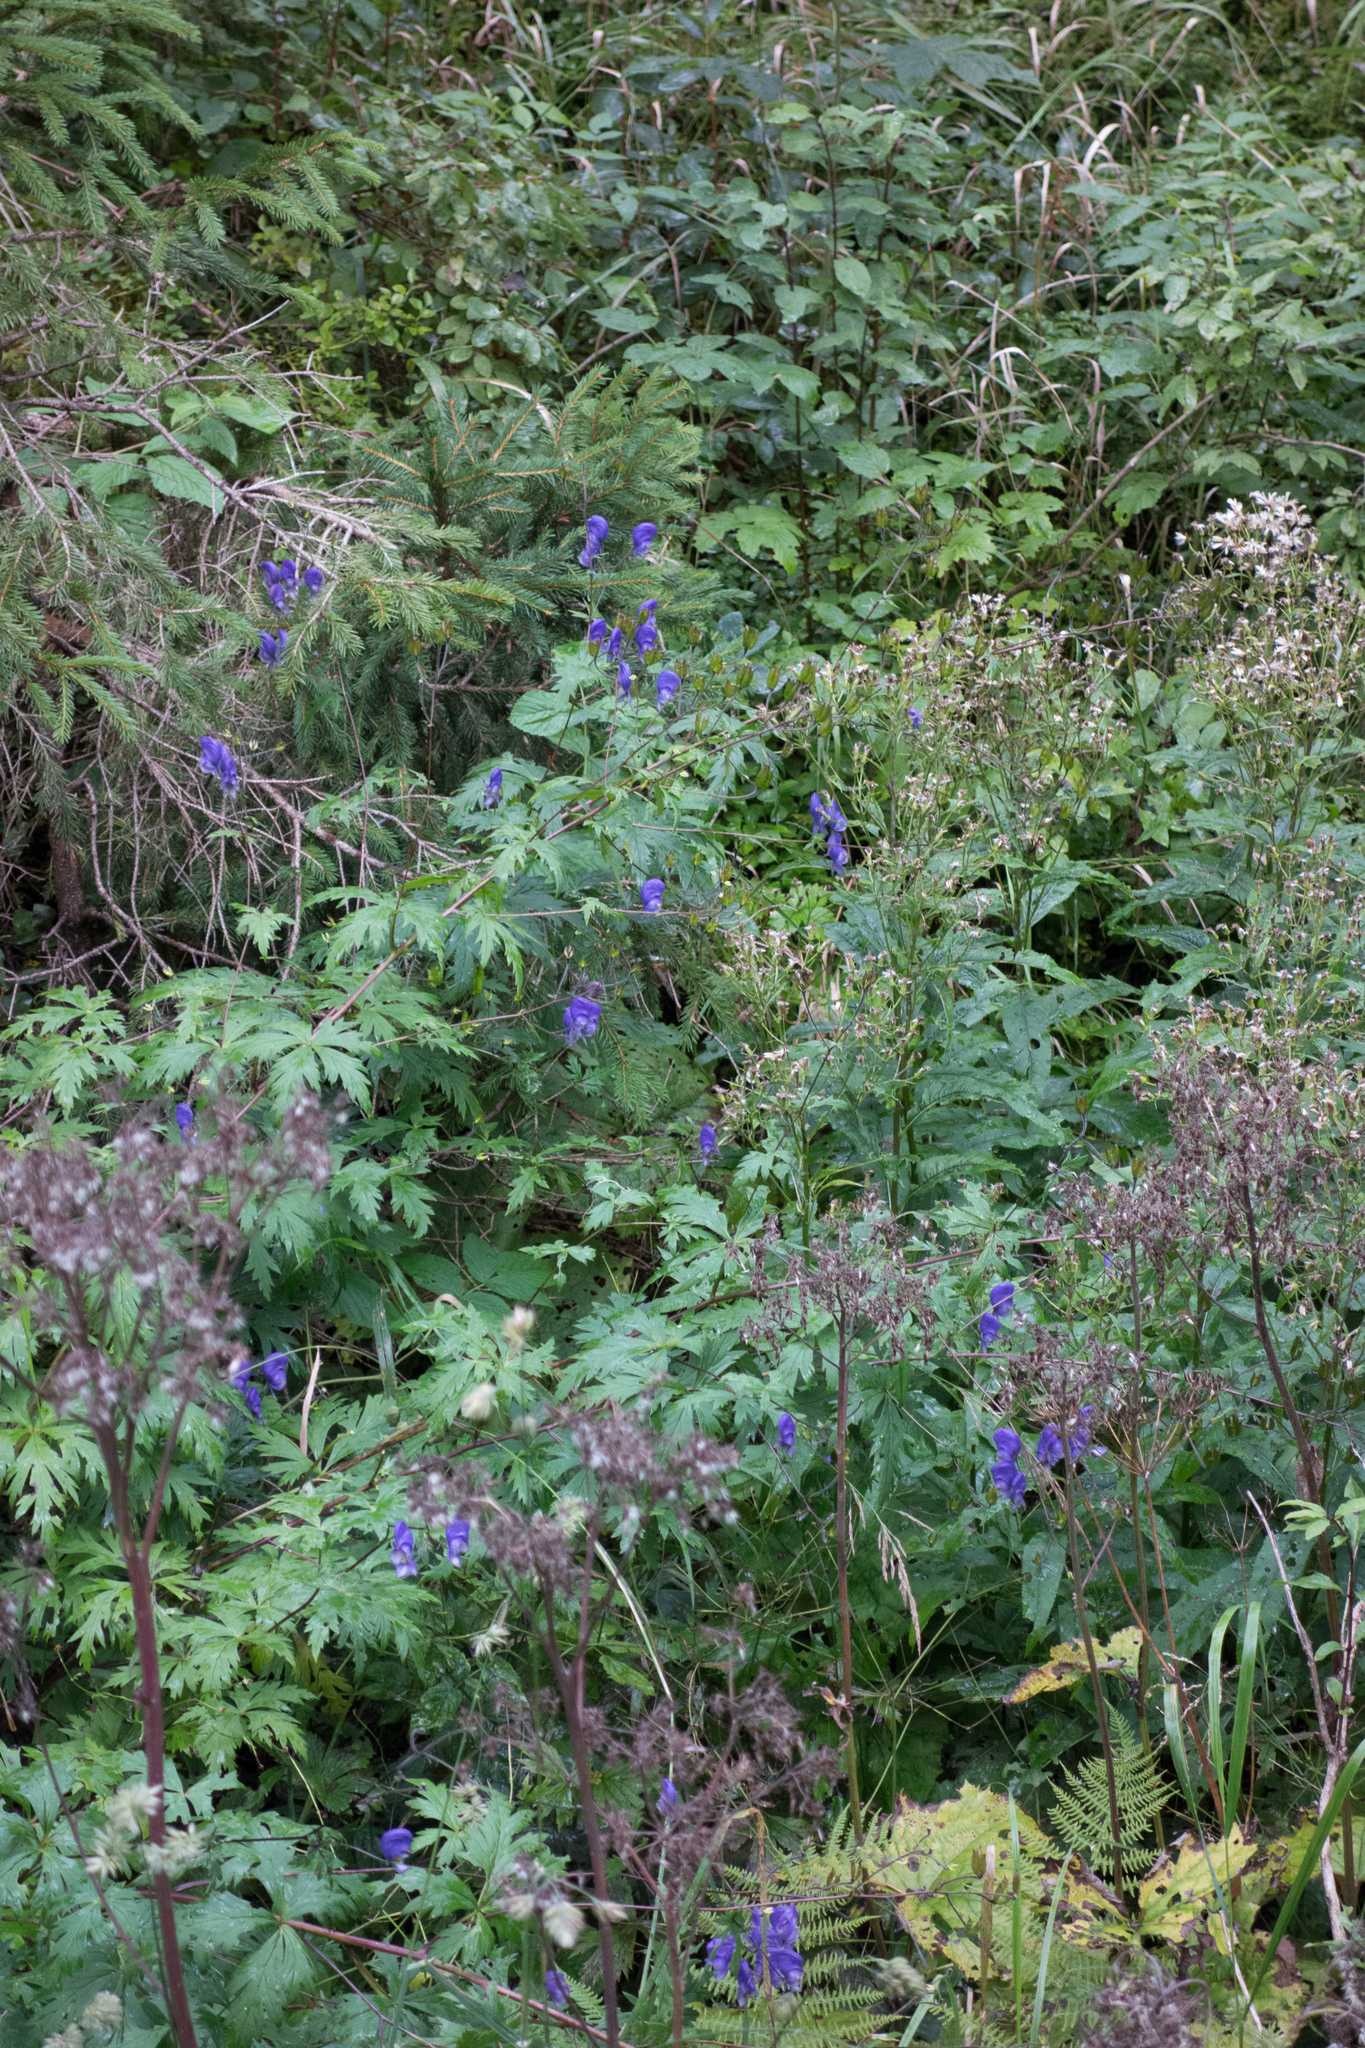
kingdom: Plantae
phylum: Tracheophyta
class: Magnoliopsida
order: Gentianales
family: Gentianaceae
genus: Gentiana
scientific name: Gentiana asclepiadea
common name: Willow gentian
